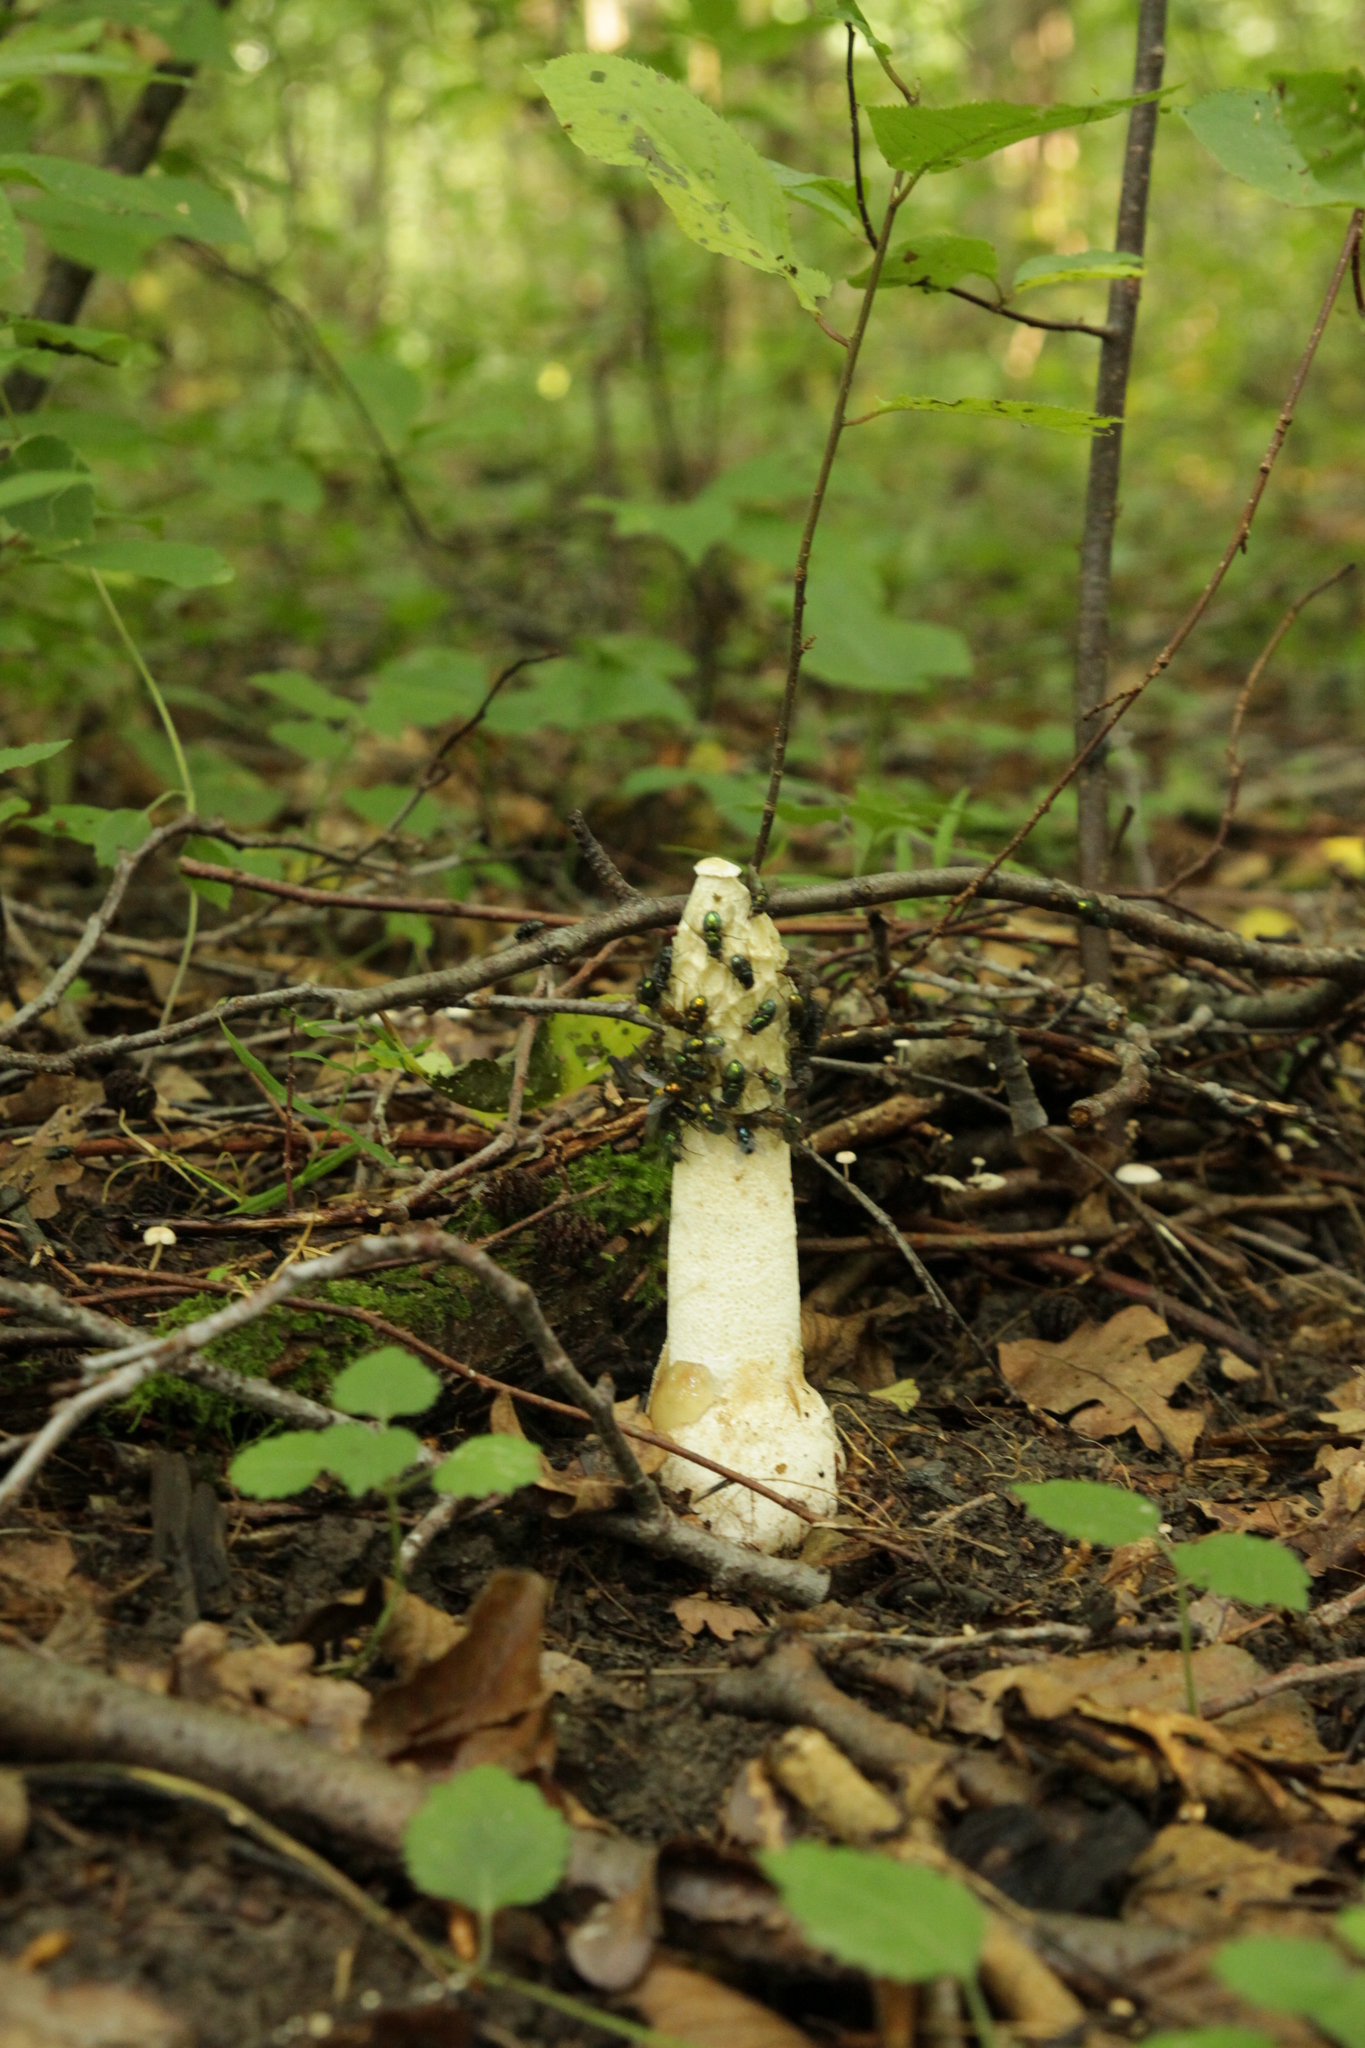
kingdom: Fungi
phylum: Basidiomycota
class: Agaricomycetes
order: Phallales
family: Phallaceae
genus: Phallus
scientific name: Phallus impudicus
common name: Common stinkhorn
